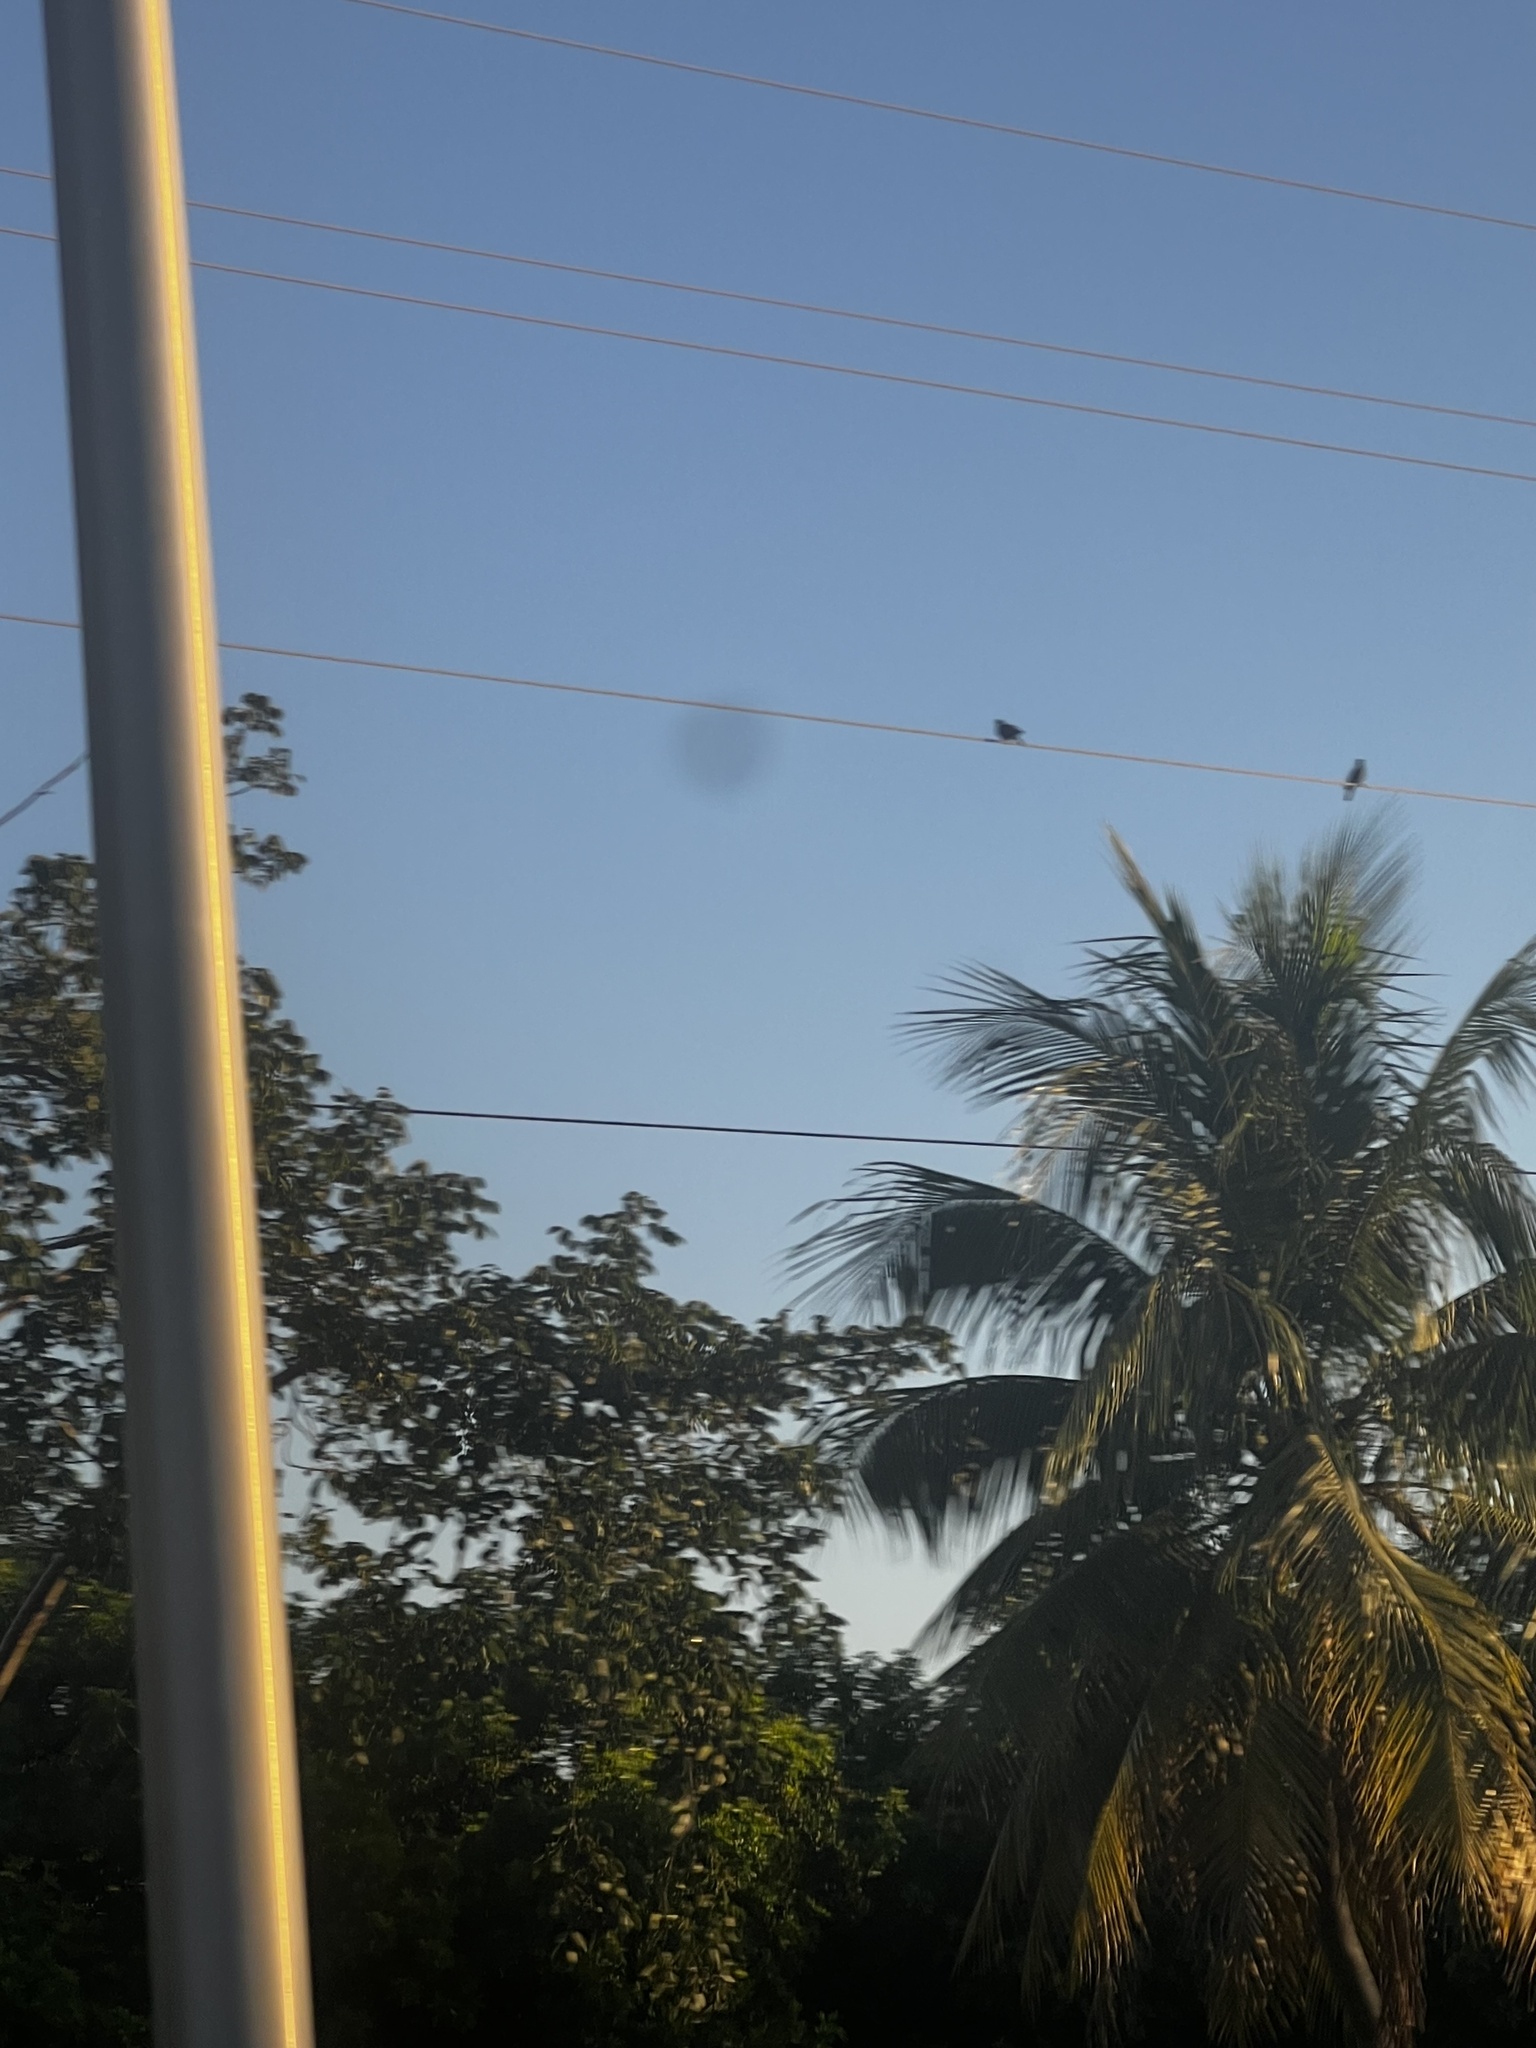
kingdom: Animalia
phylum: Chordata
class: Aves
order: Columbiformes
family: Columbidae
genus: Patagioenas
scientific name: Patagioenas leucocephala
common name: White-crowned pigeon
